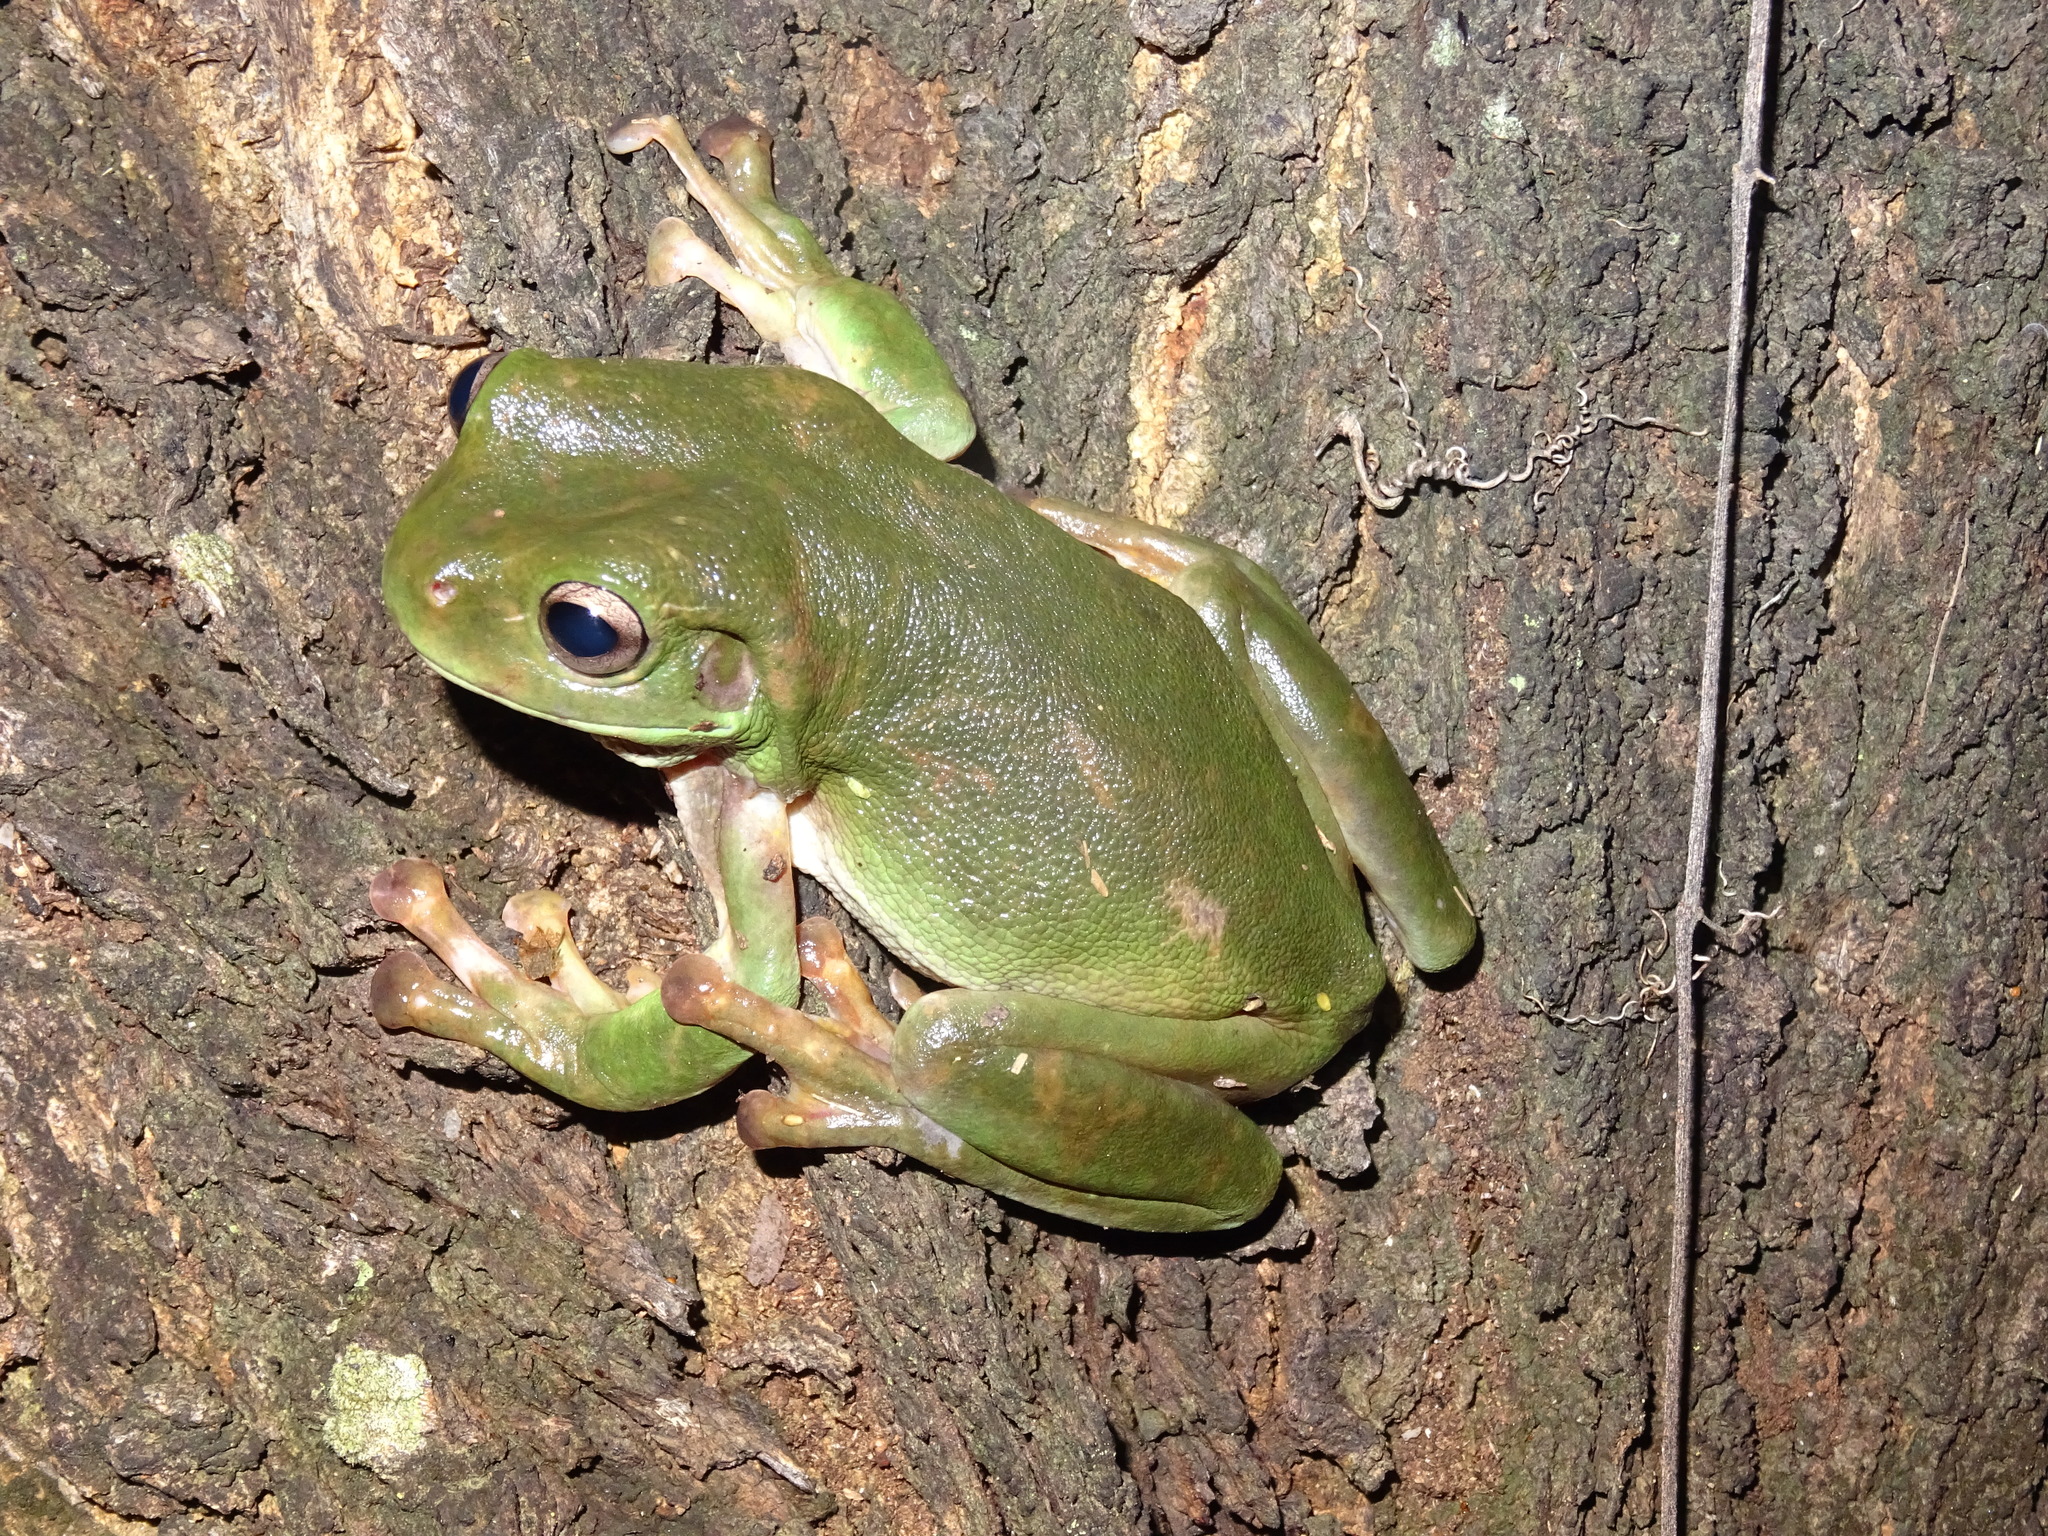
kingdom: Animalia
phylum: Chordata
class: Amphibia
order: Anura
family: Pelodryadidae
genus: Ranoidea
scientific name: Ranoidea caerulea
